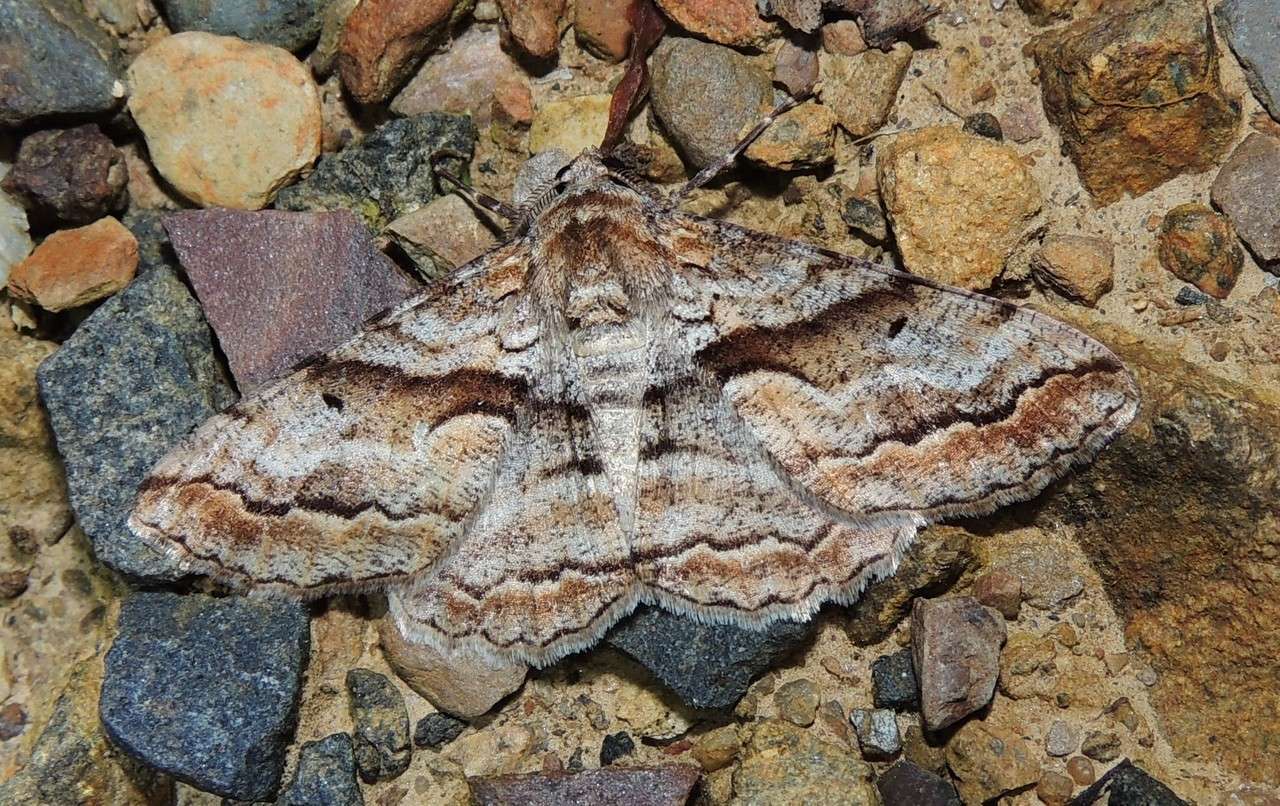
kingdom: Animalia
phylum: Arthropoda
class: Insecta
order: Lepidoptera
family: Geometridae
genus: Gastrinodes
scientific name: Gastrinodes bitaeniaria
